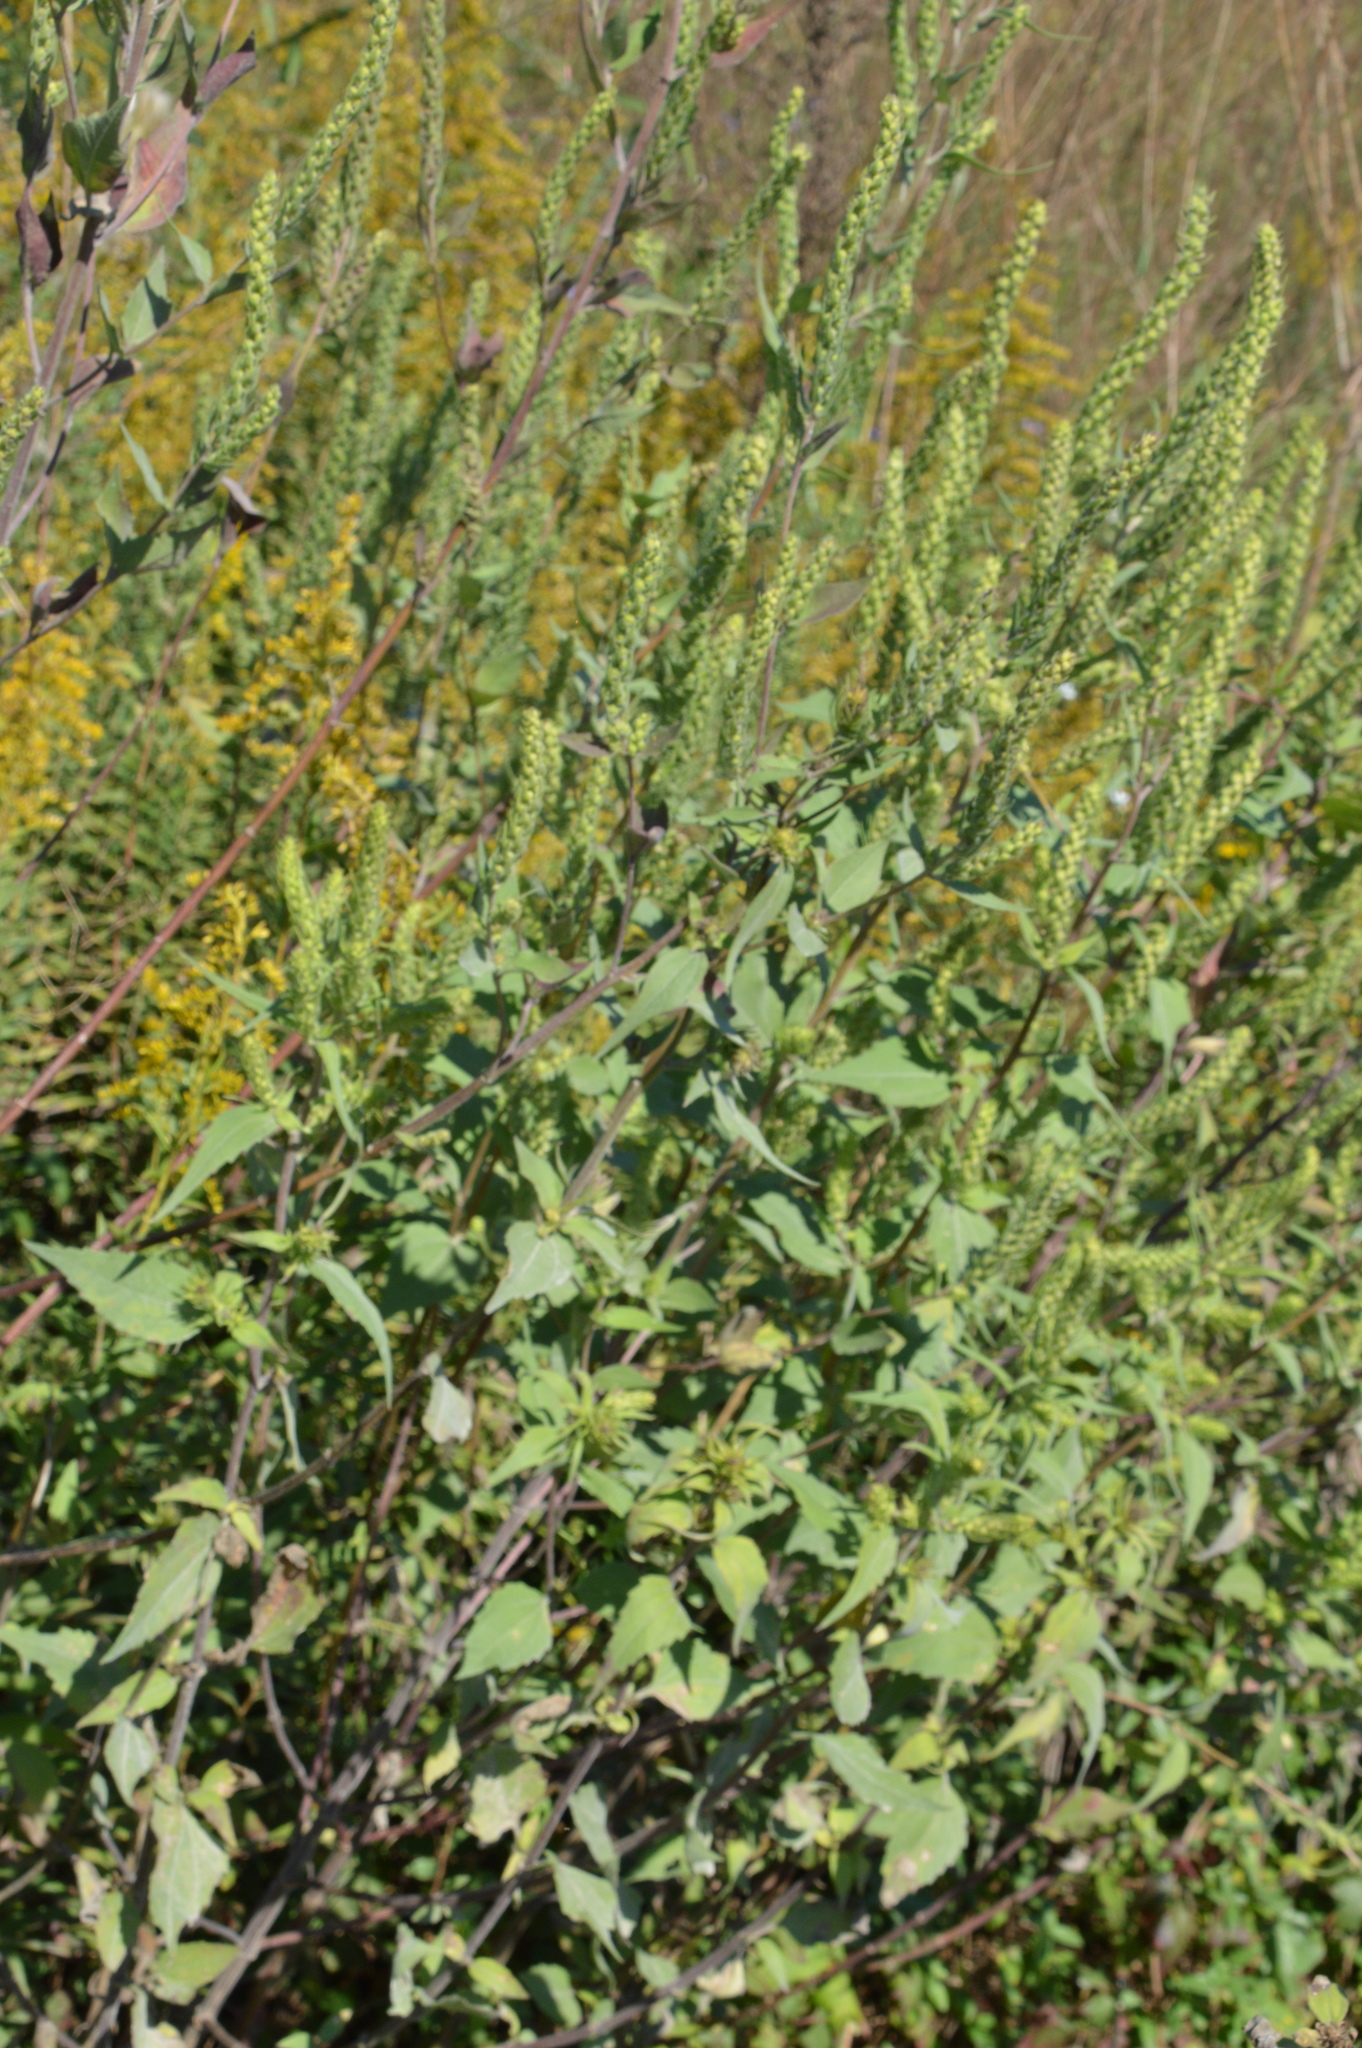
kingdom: Plantae
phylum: Tracheophyta
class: Magnoliopsida
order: Asterales
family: Asteraceae
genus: Iva
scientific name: Iva annua
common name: Marsh-elder
